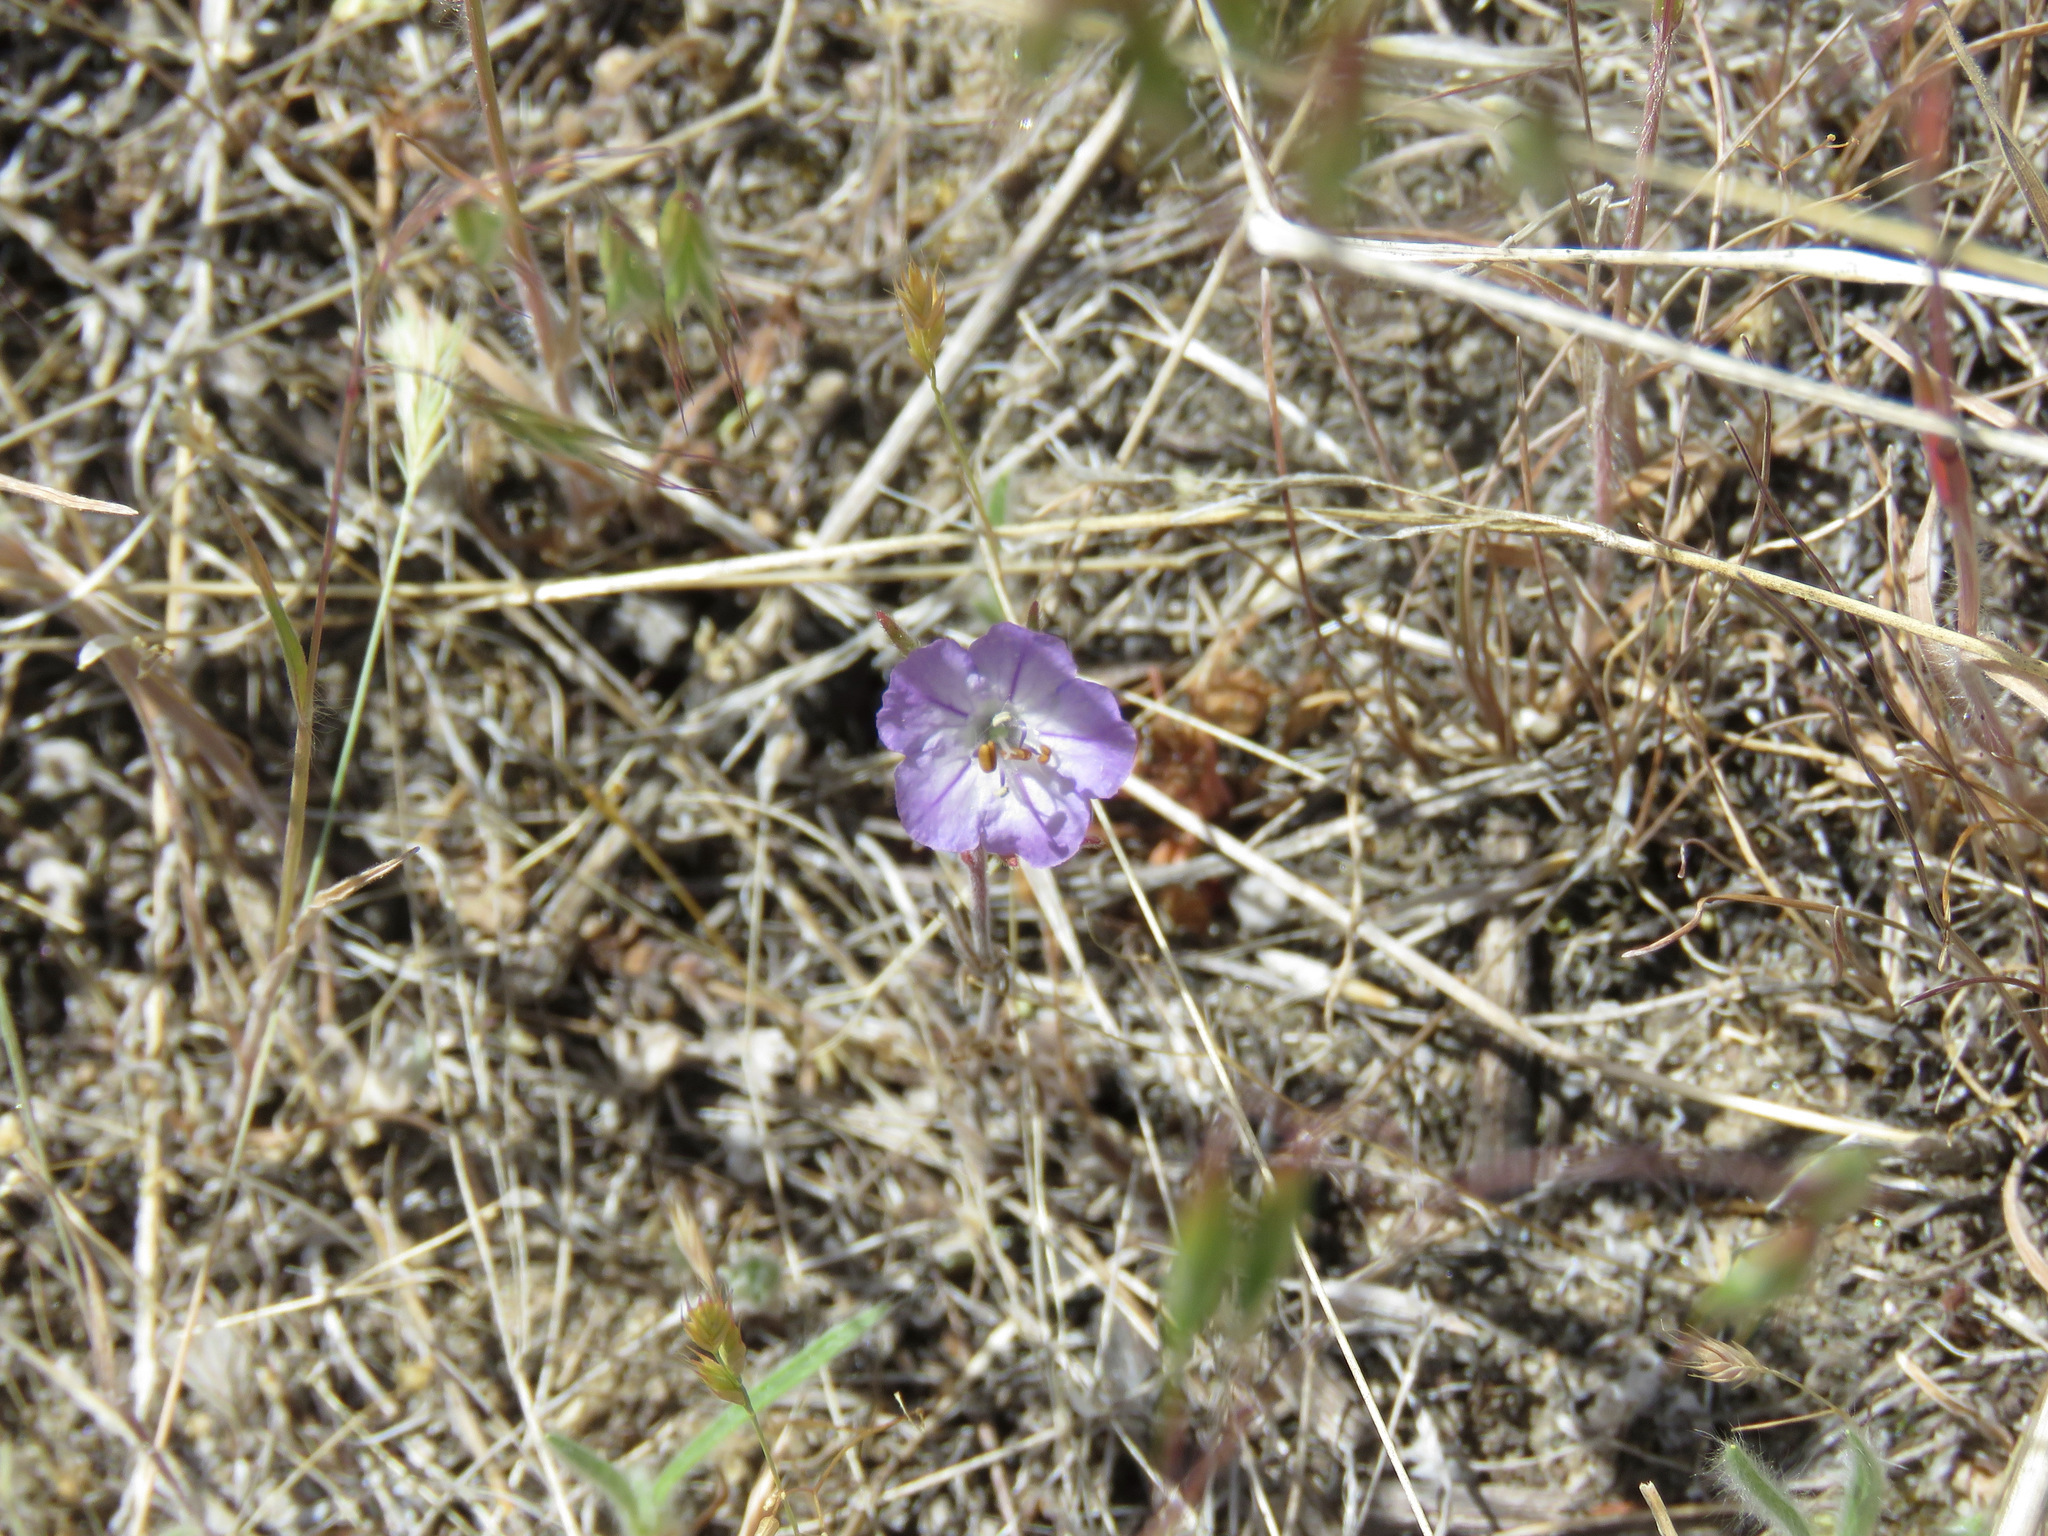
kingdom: Plantae
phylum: Tracheophyta
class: Magnoliopsida
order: Boraginales
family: Hydrophyllaceae
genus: Phacelia
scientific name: Phacelia linearis
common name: Linear-leaved phacelia
